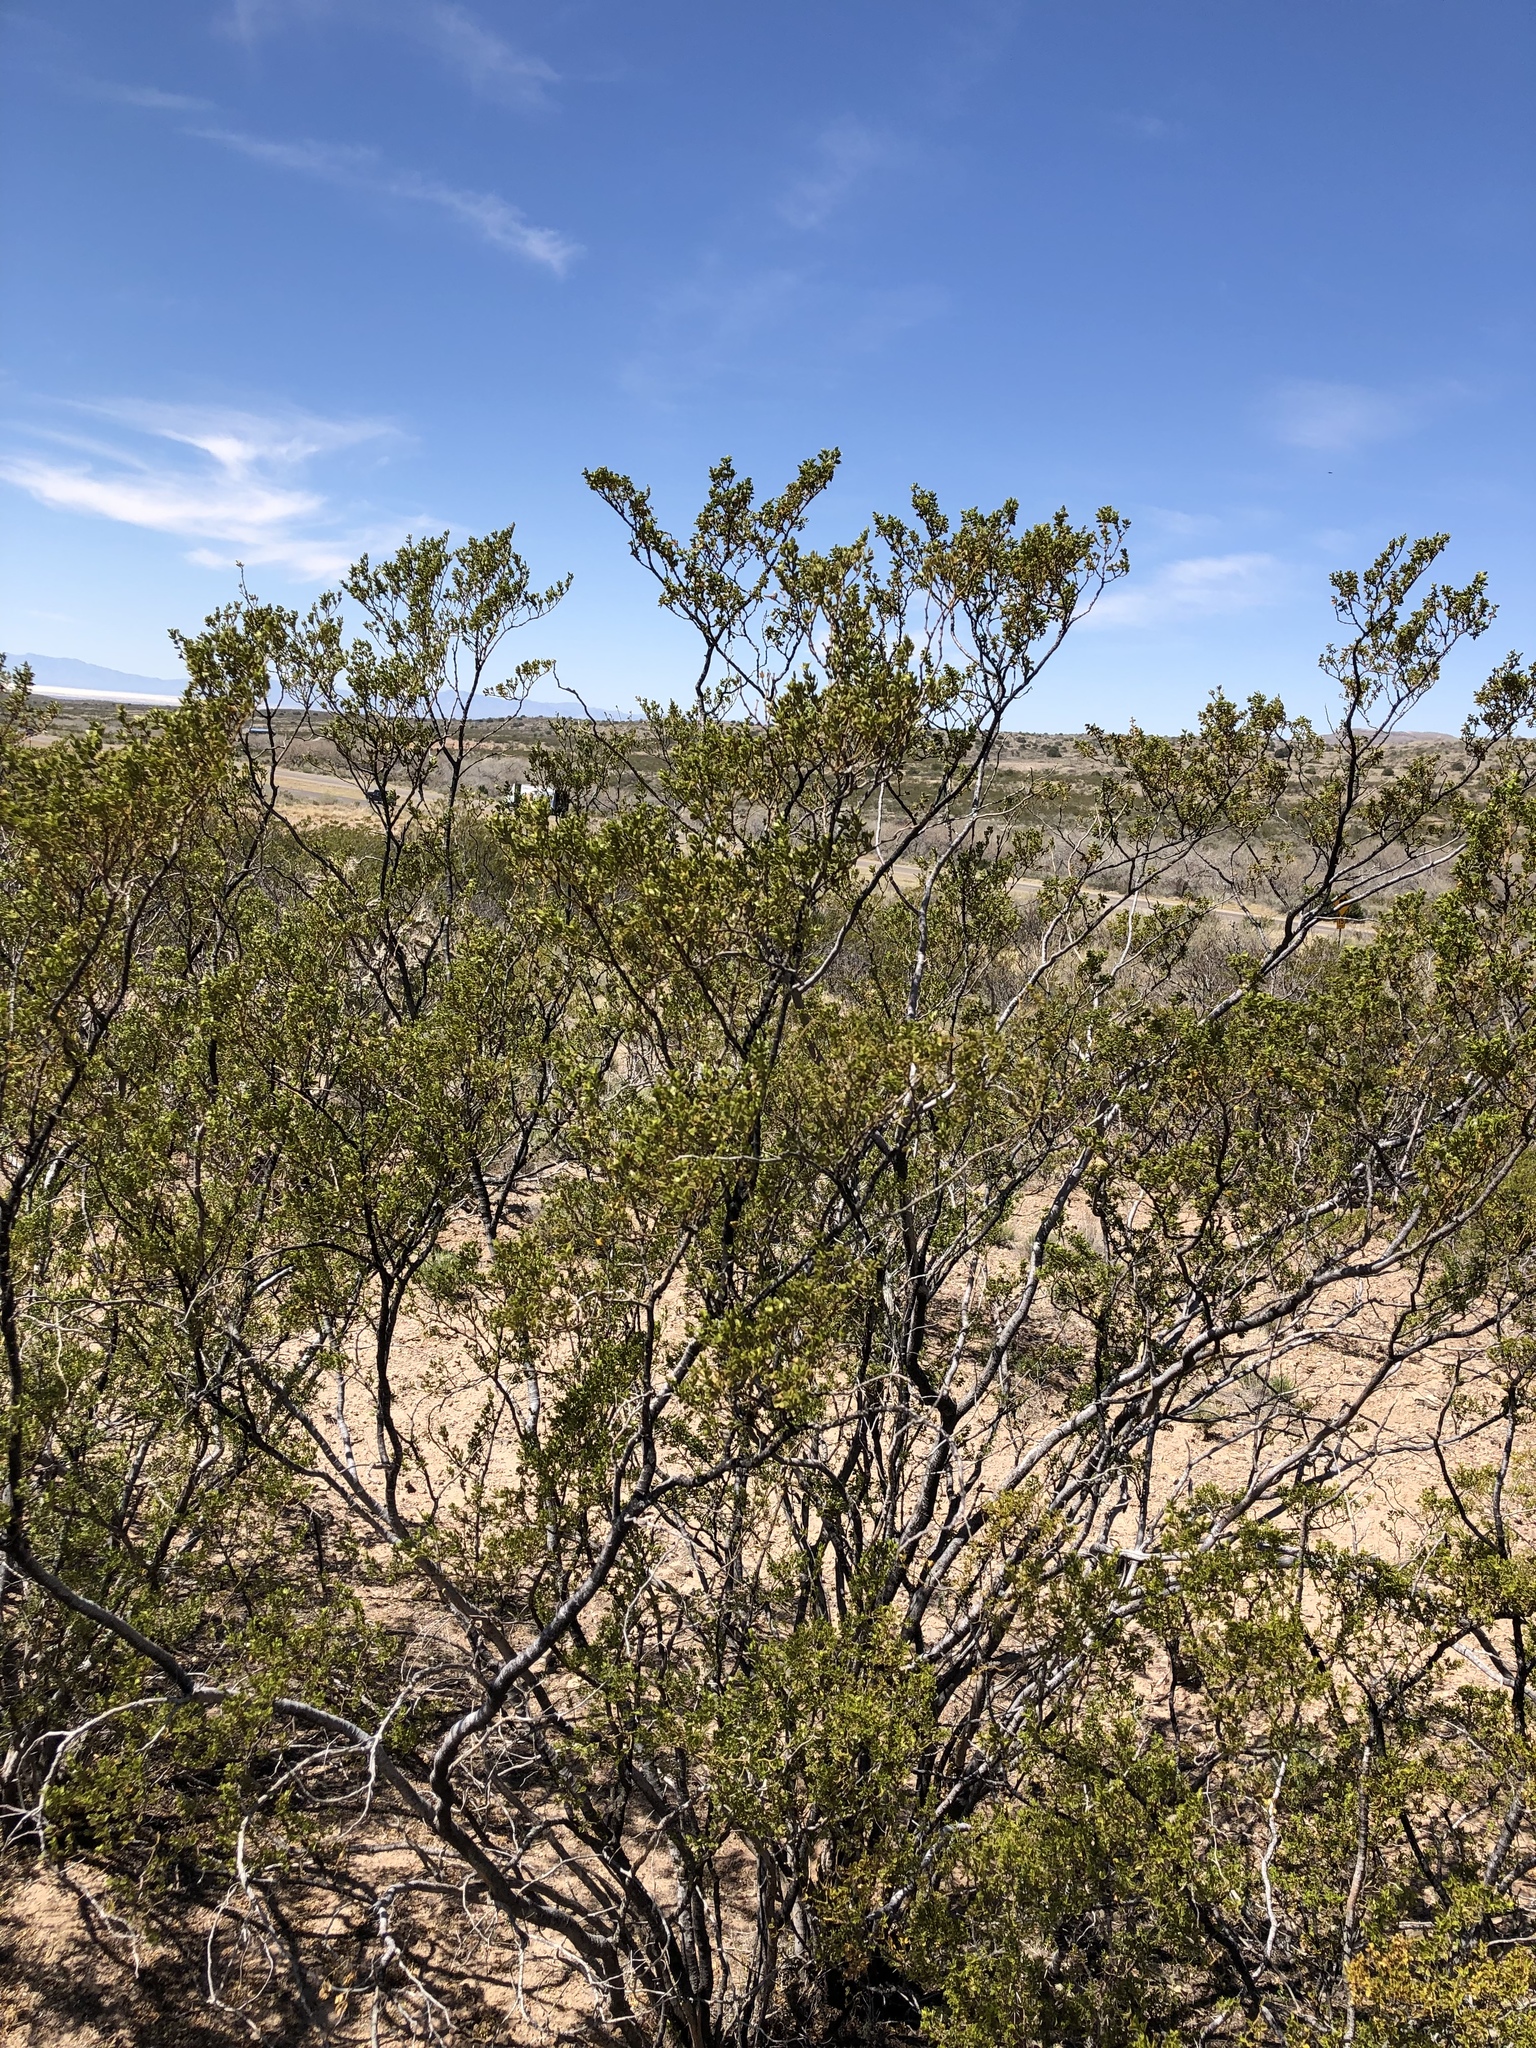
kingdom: Plantae
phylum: Tracheophyta
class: Magnoliopsida
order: Zygophyllales
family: Zygophyllaceae
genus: Larrea
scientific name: Larrea tridentata
